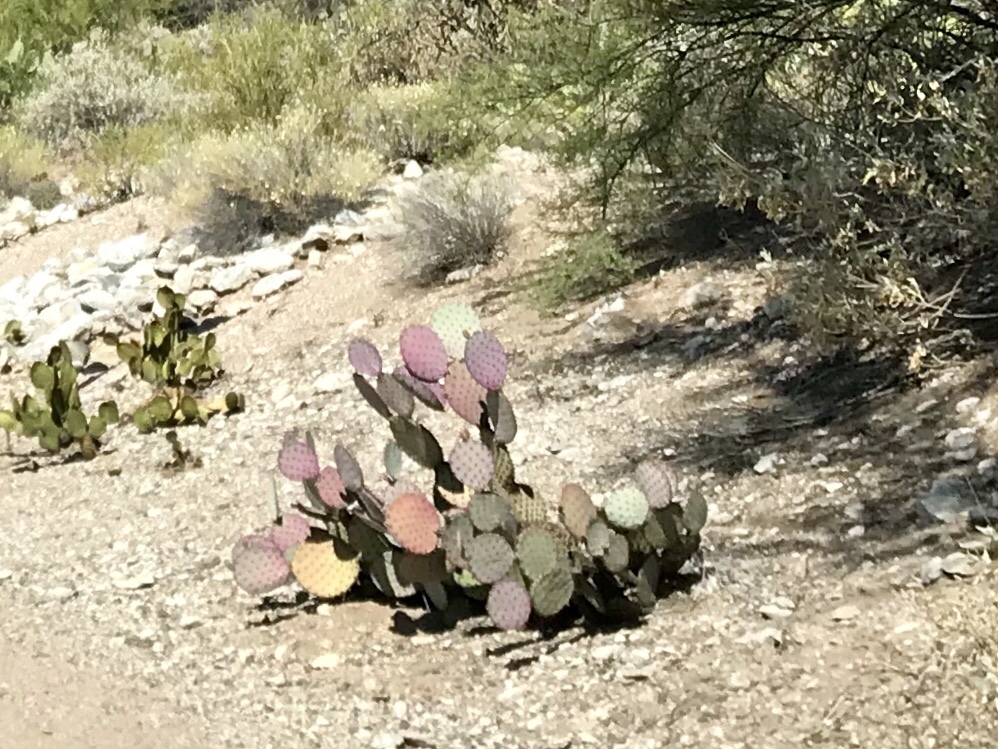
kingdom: Plantae
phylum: Tracheophyta
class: Magnoliopsida
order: Caryophyllales
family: Cactaceae
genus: Opuntia
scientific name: Opuntia gosseliniana
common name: Violet prickly-pear
